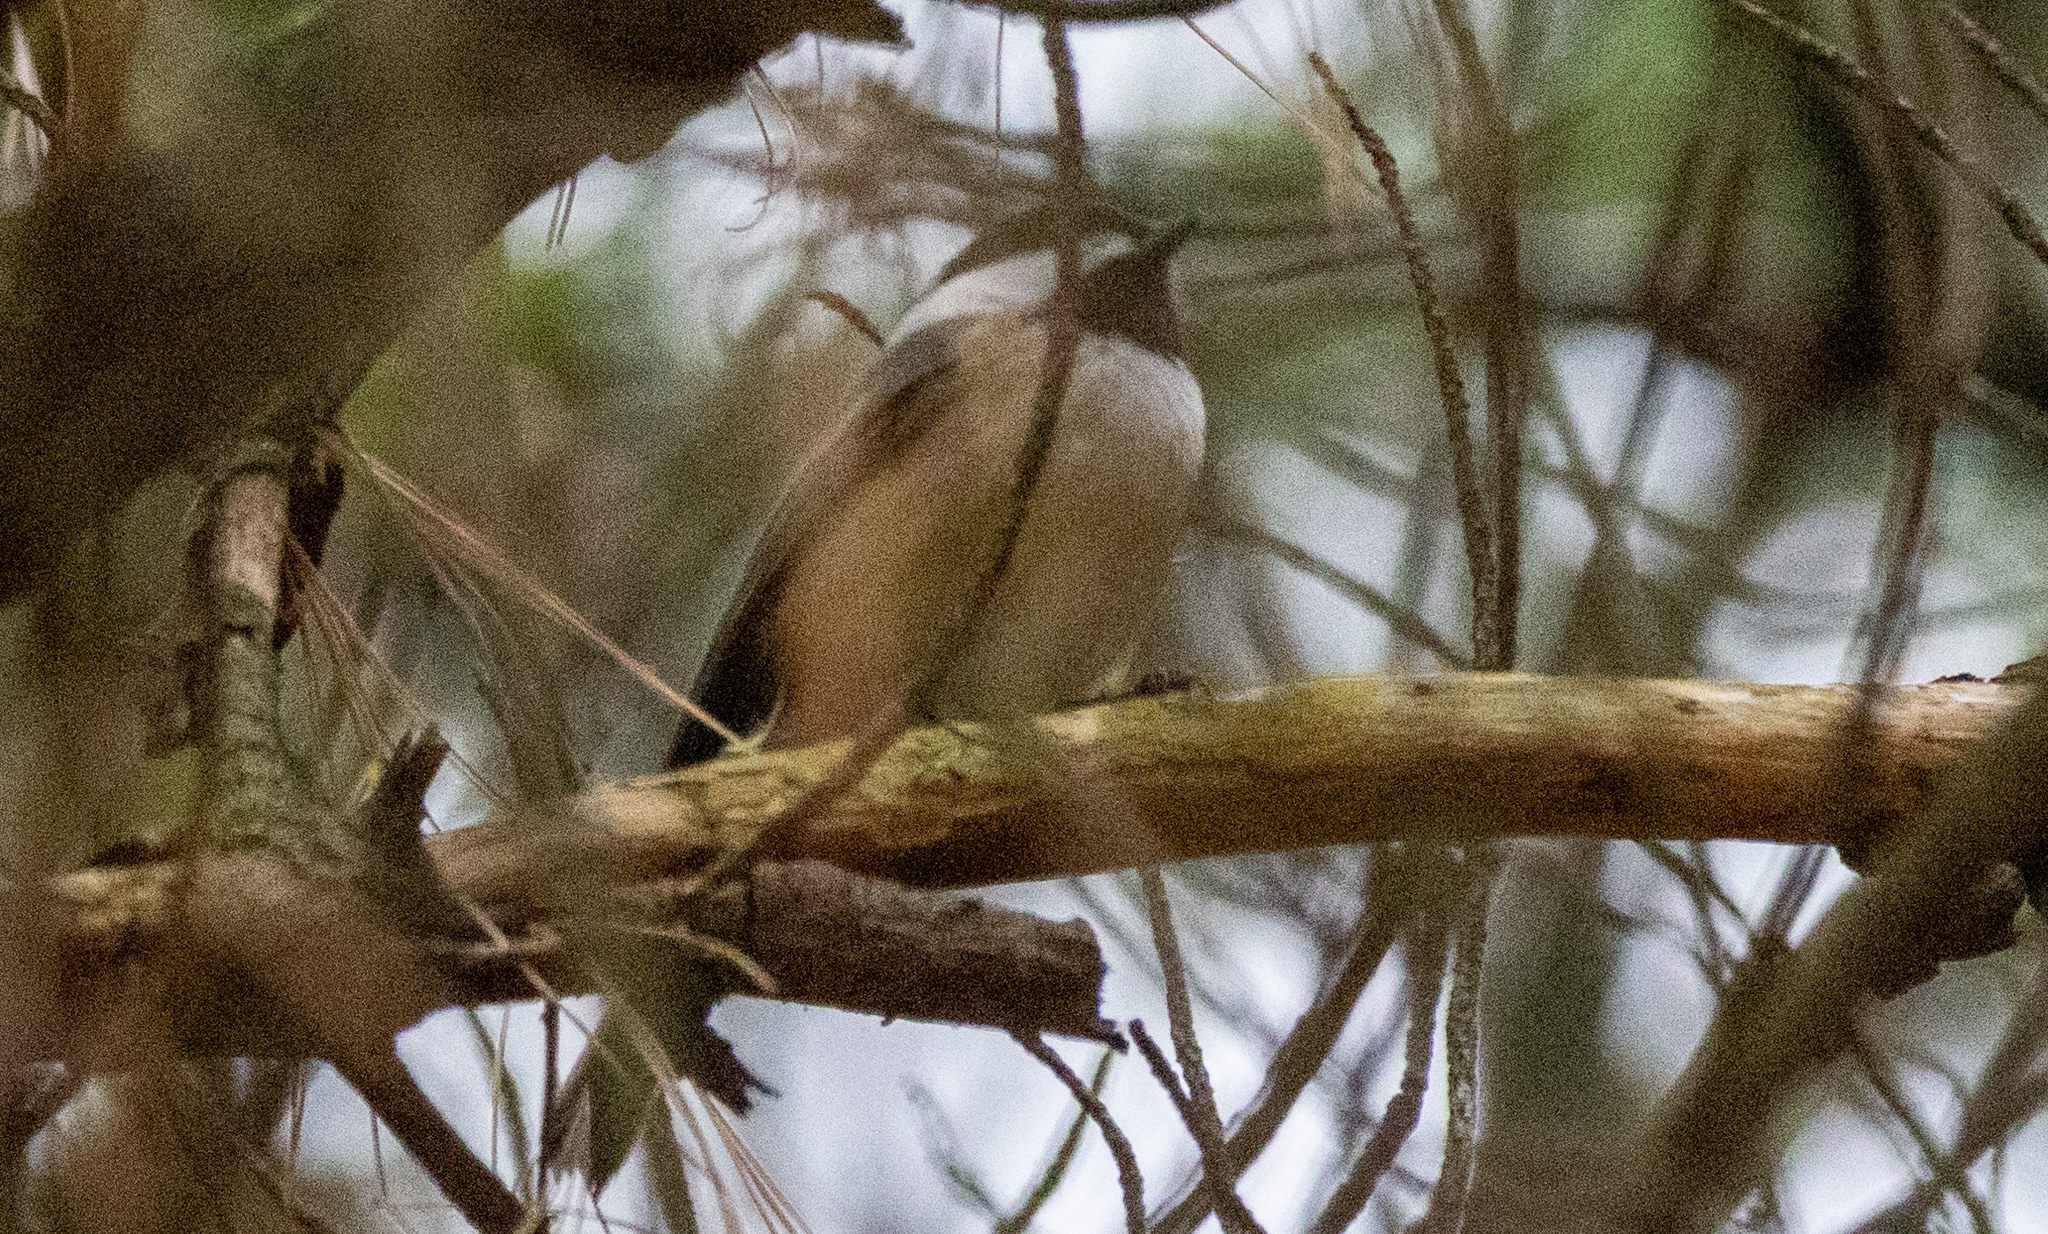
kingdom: Animalia
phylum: Chordata
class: Aves
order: Passeriformes
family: Paridae
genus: Poecile
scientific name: Poecile atricapillus
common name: Black-capped chickadee
